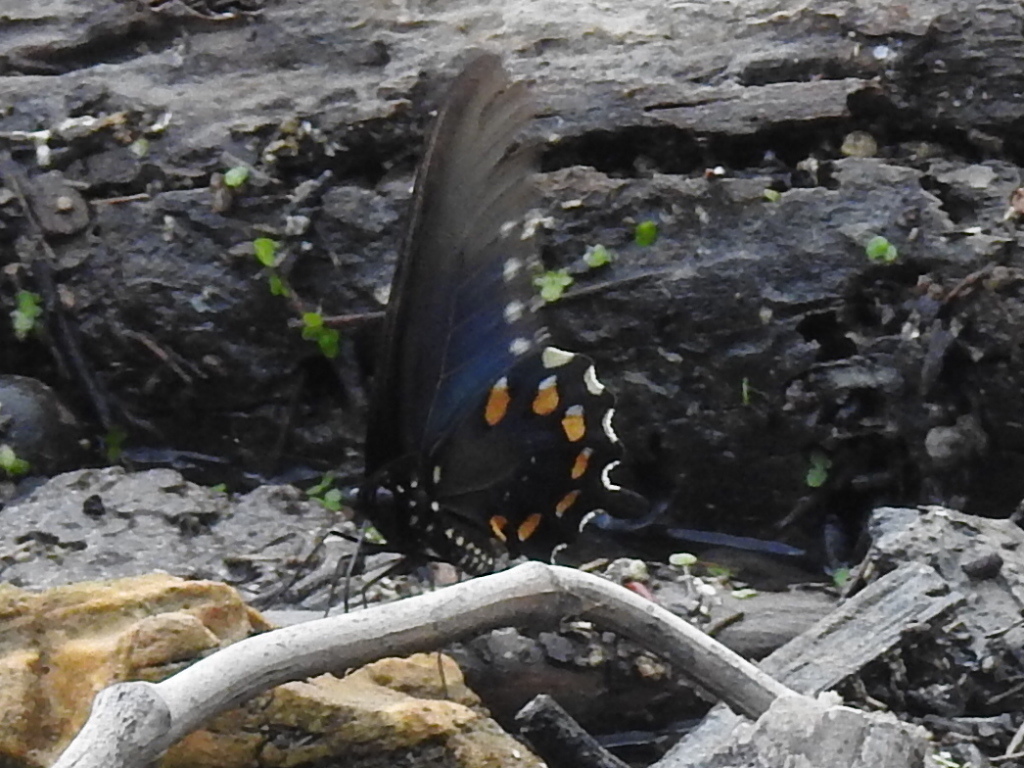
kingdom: Animalia
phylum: Arthropoda
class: Insecta
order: Lepidoptera
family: Papilionidae
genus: Battus
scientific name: Battus philenor
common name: Pipevine swallowtail
